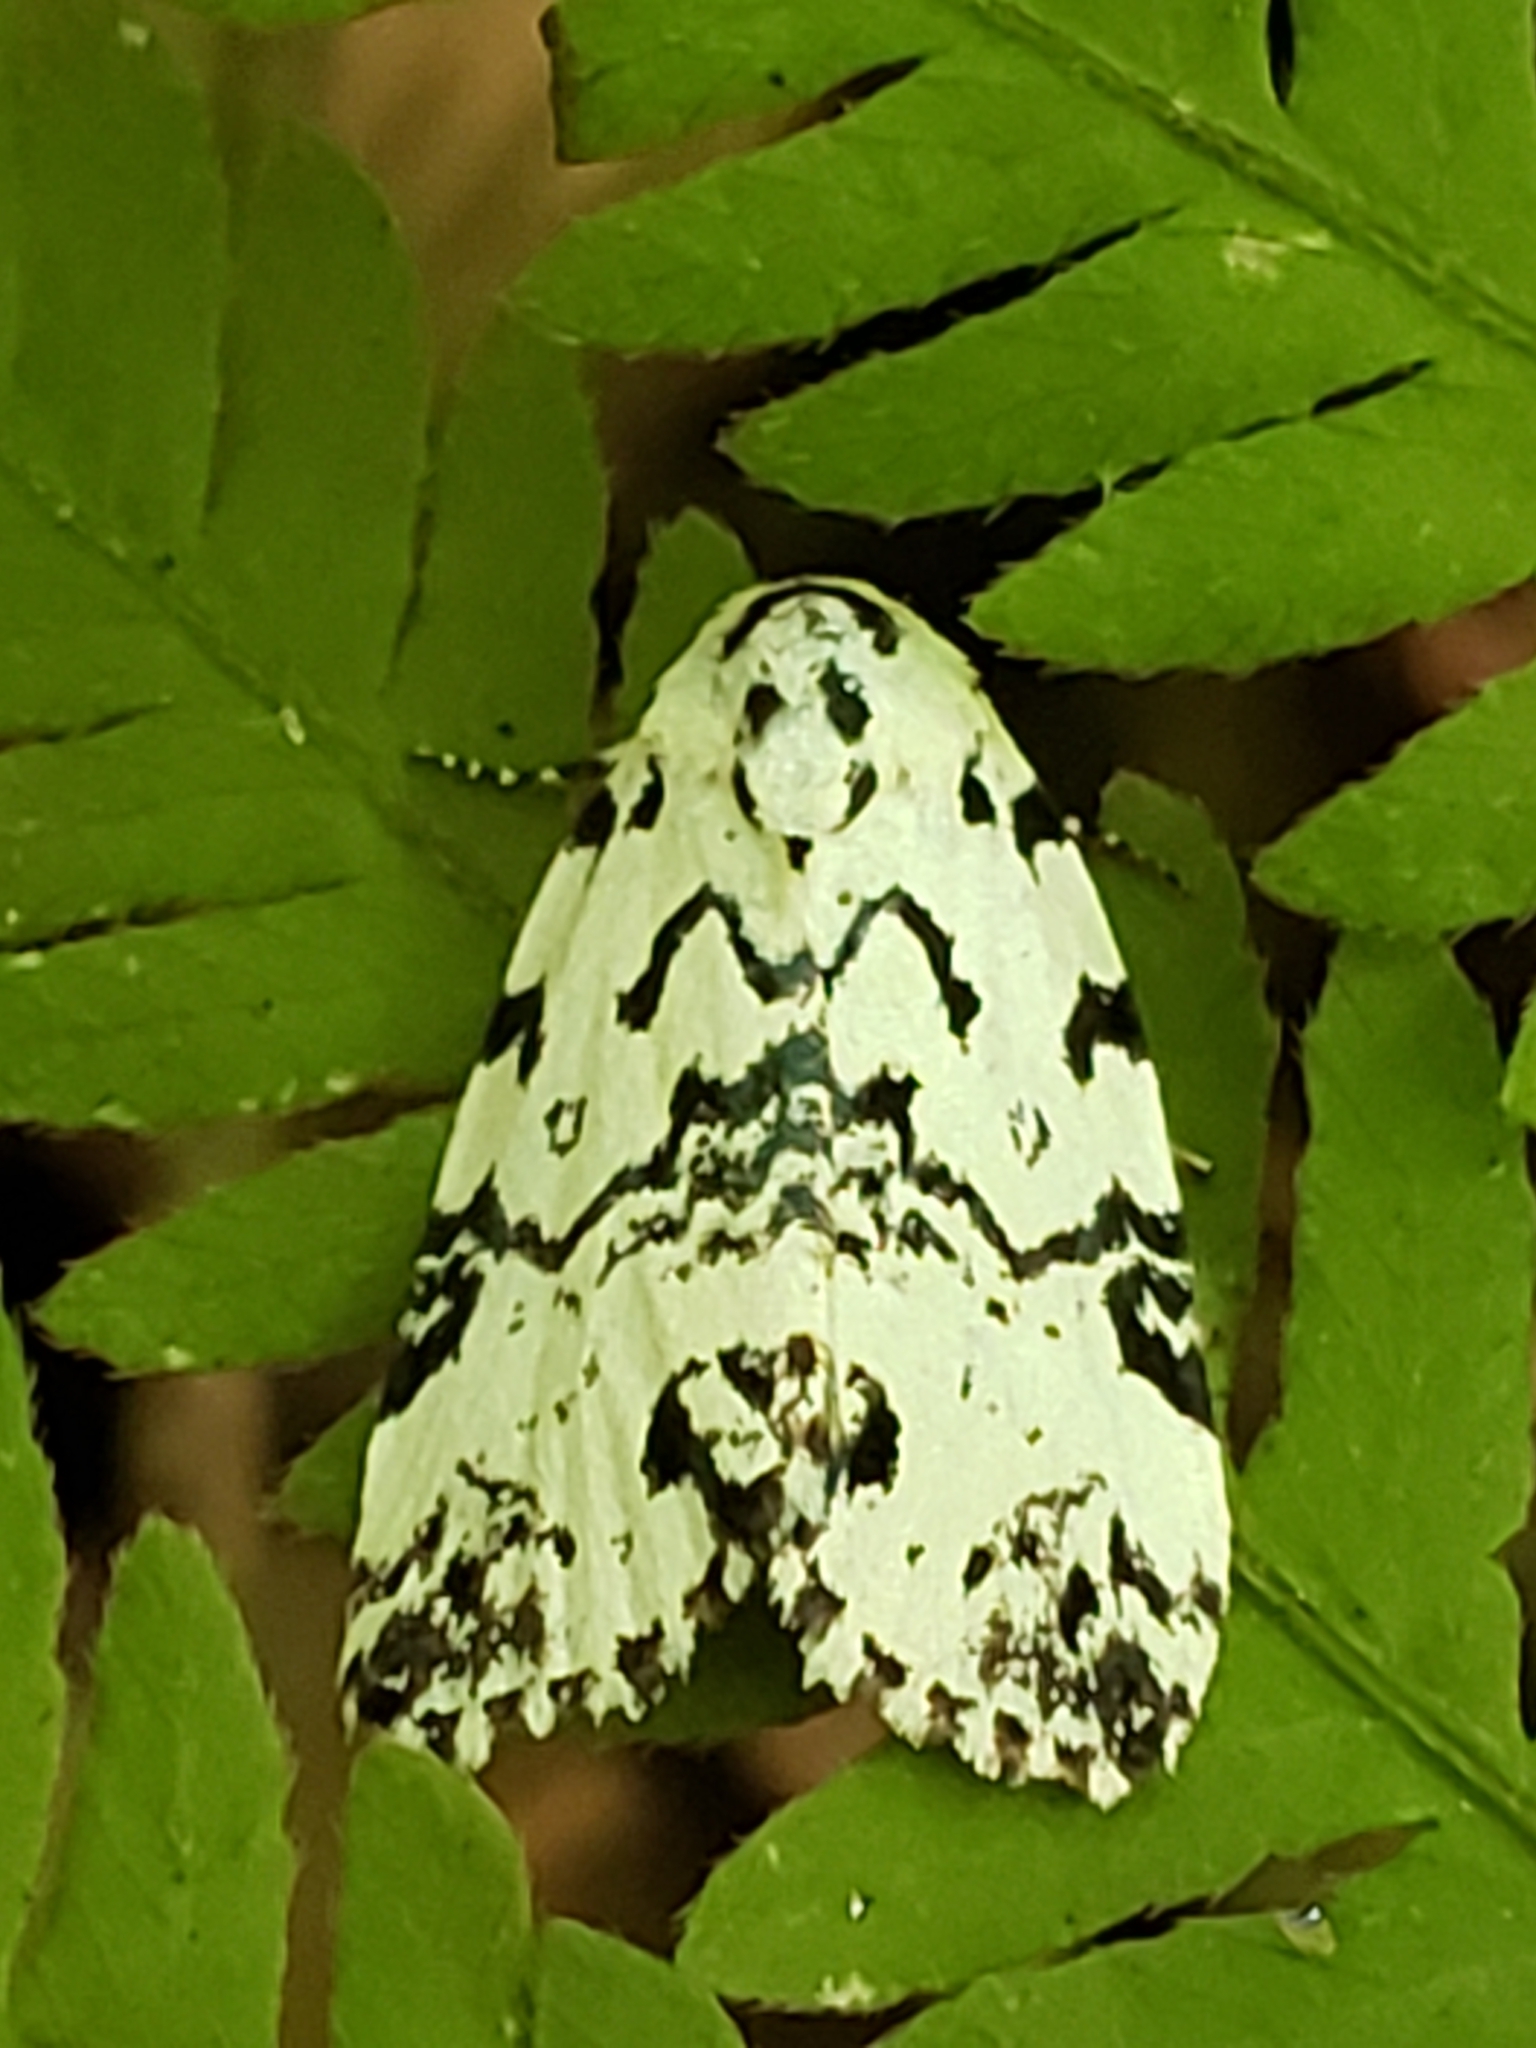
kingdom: Animalia
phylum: Arthropoda
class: Insecta
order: Lepidoptera
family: Noctuidae
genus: Polygrammate
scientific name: Polygrammate hebraeicum
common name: Hebrew moth
